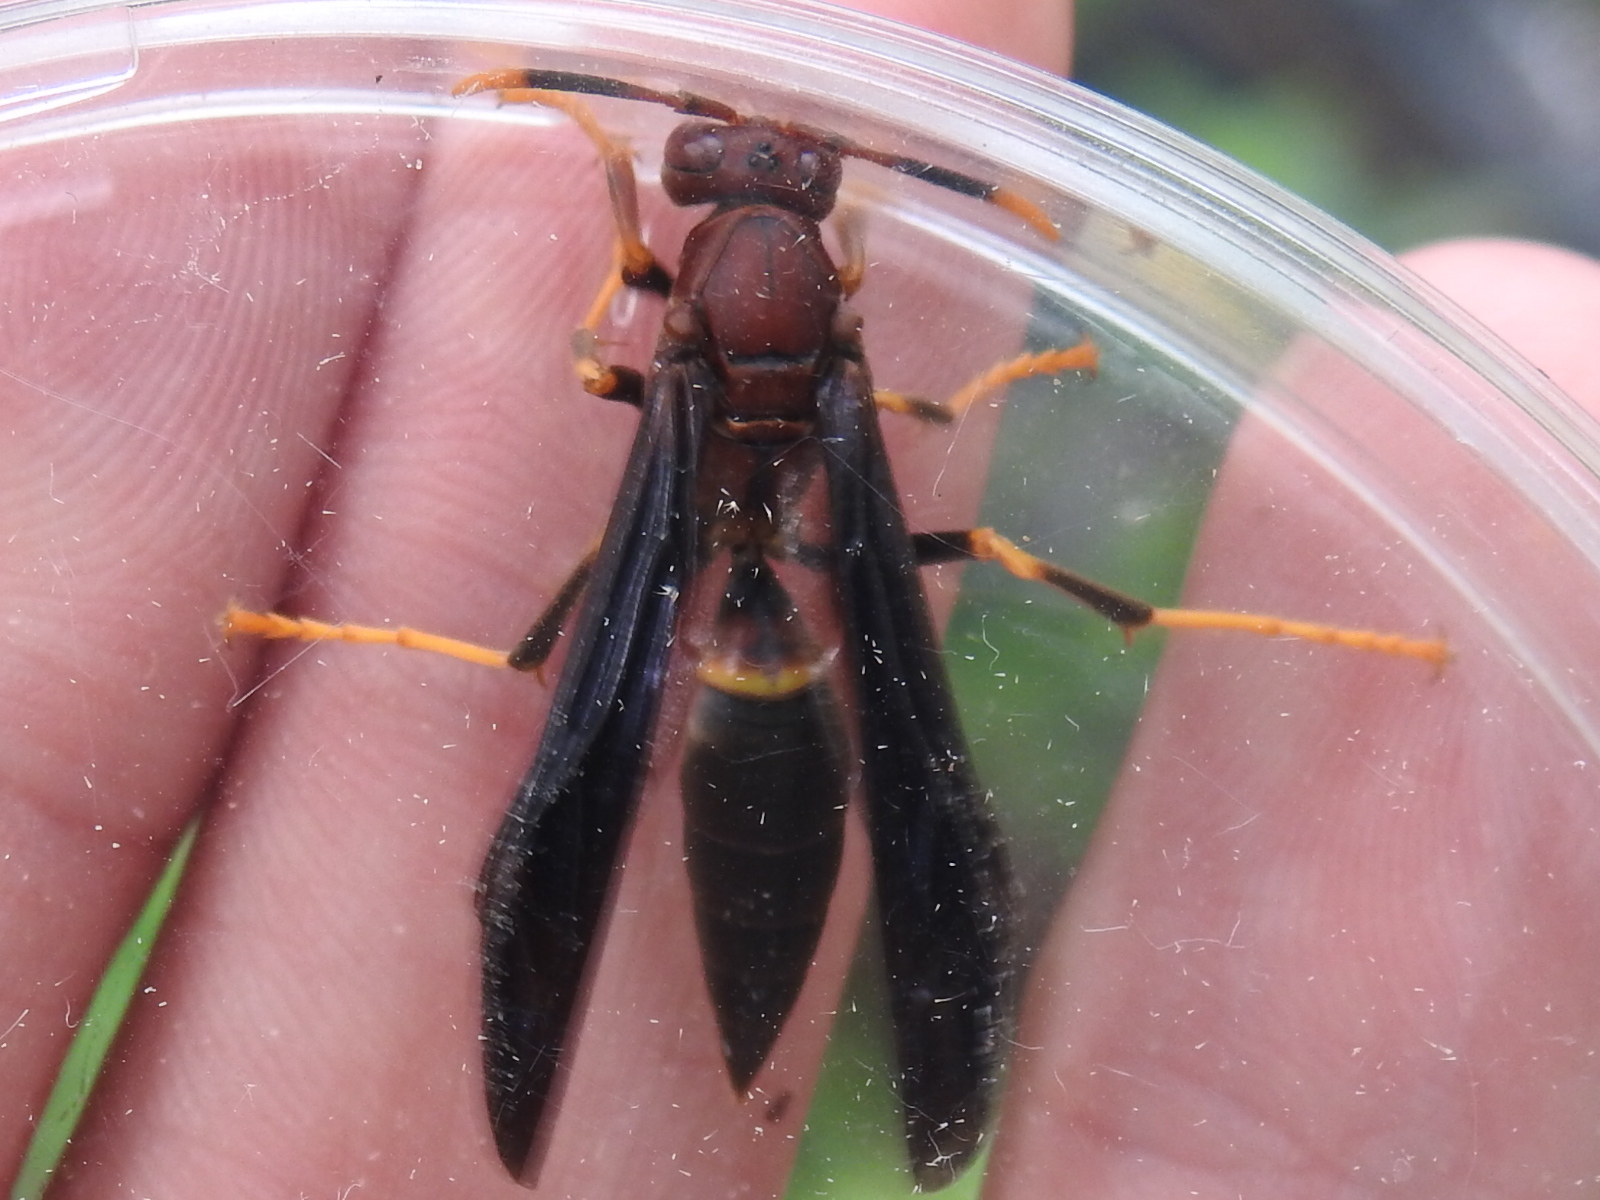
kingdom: Animalia
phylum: Arthropoda
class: Insecta
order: Hymenoptera
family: Eumenidae
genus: Polistes
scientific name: Polistes annularis
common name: Ringed paper wasp
